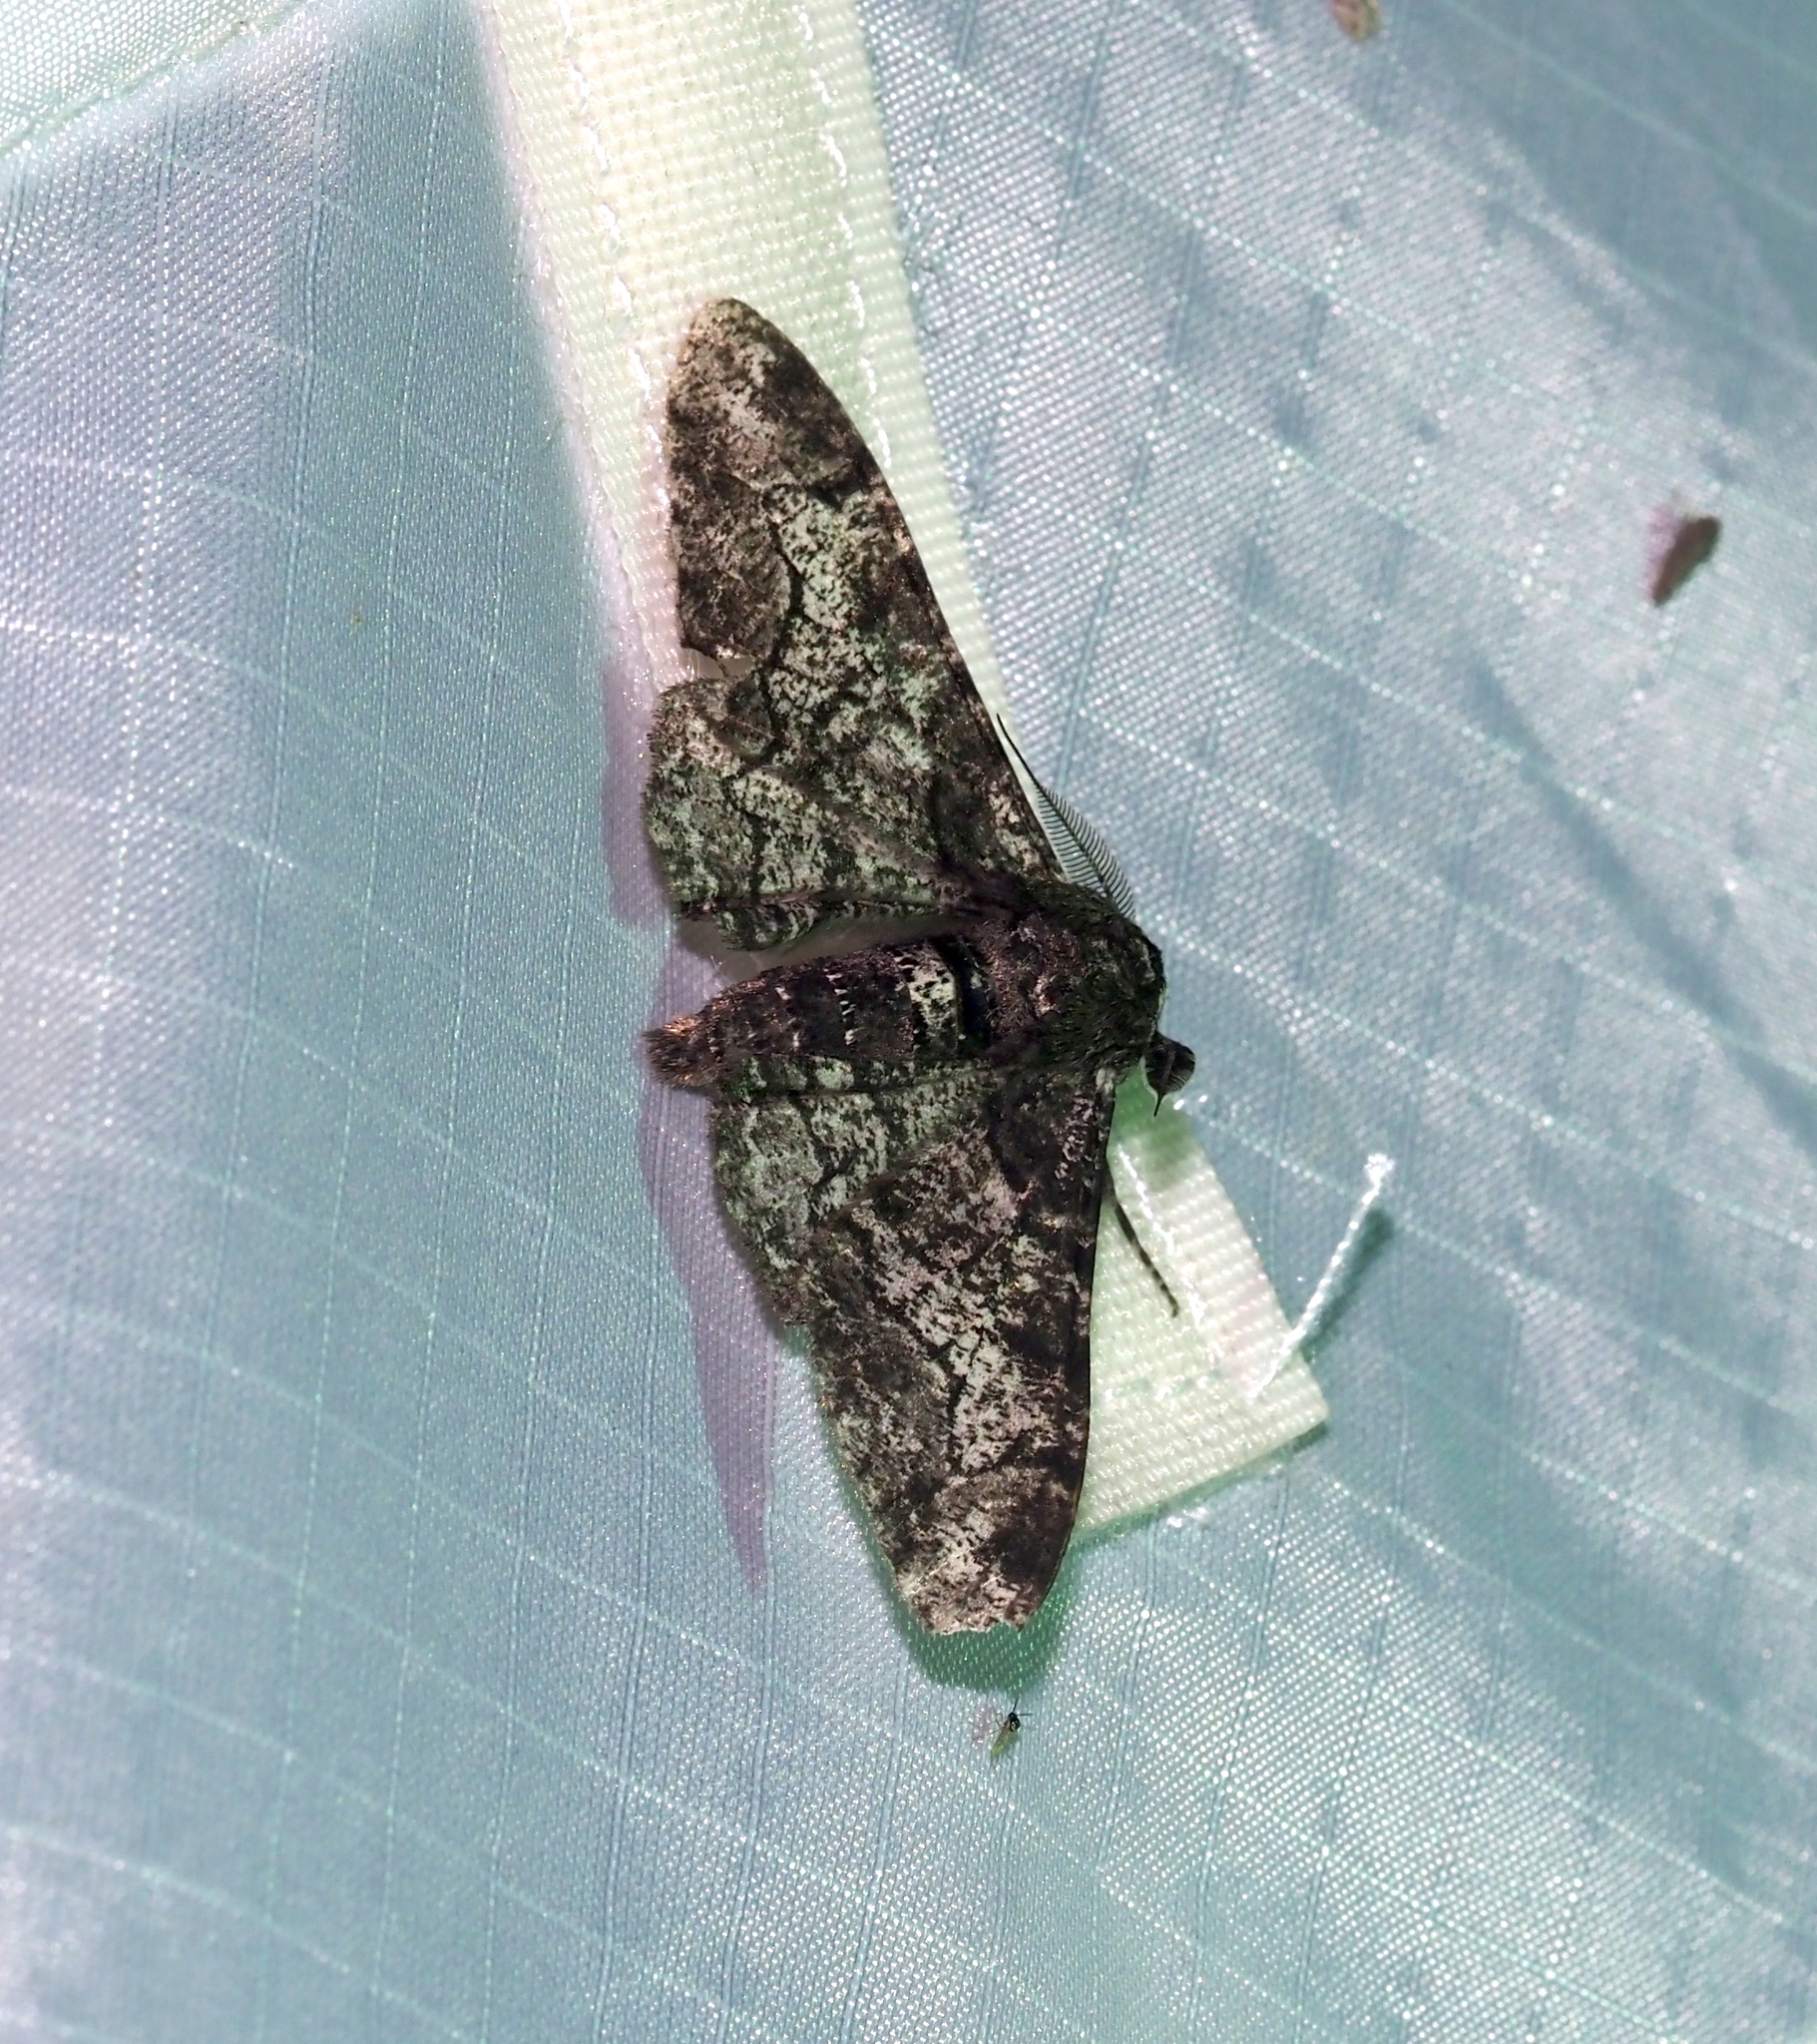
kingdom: Animalia
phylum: Arthropoda
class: Insecta
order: Lepidoptera
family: Geometridae
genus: Biston
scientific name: Biston betularia
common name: Peppered moth
